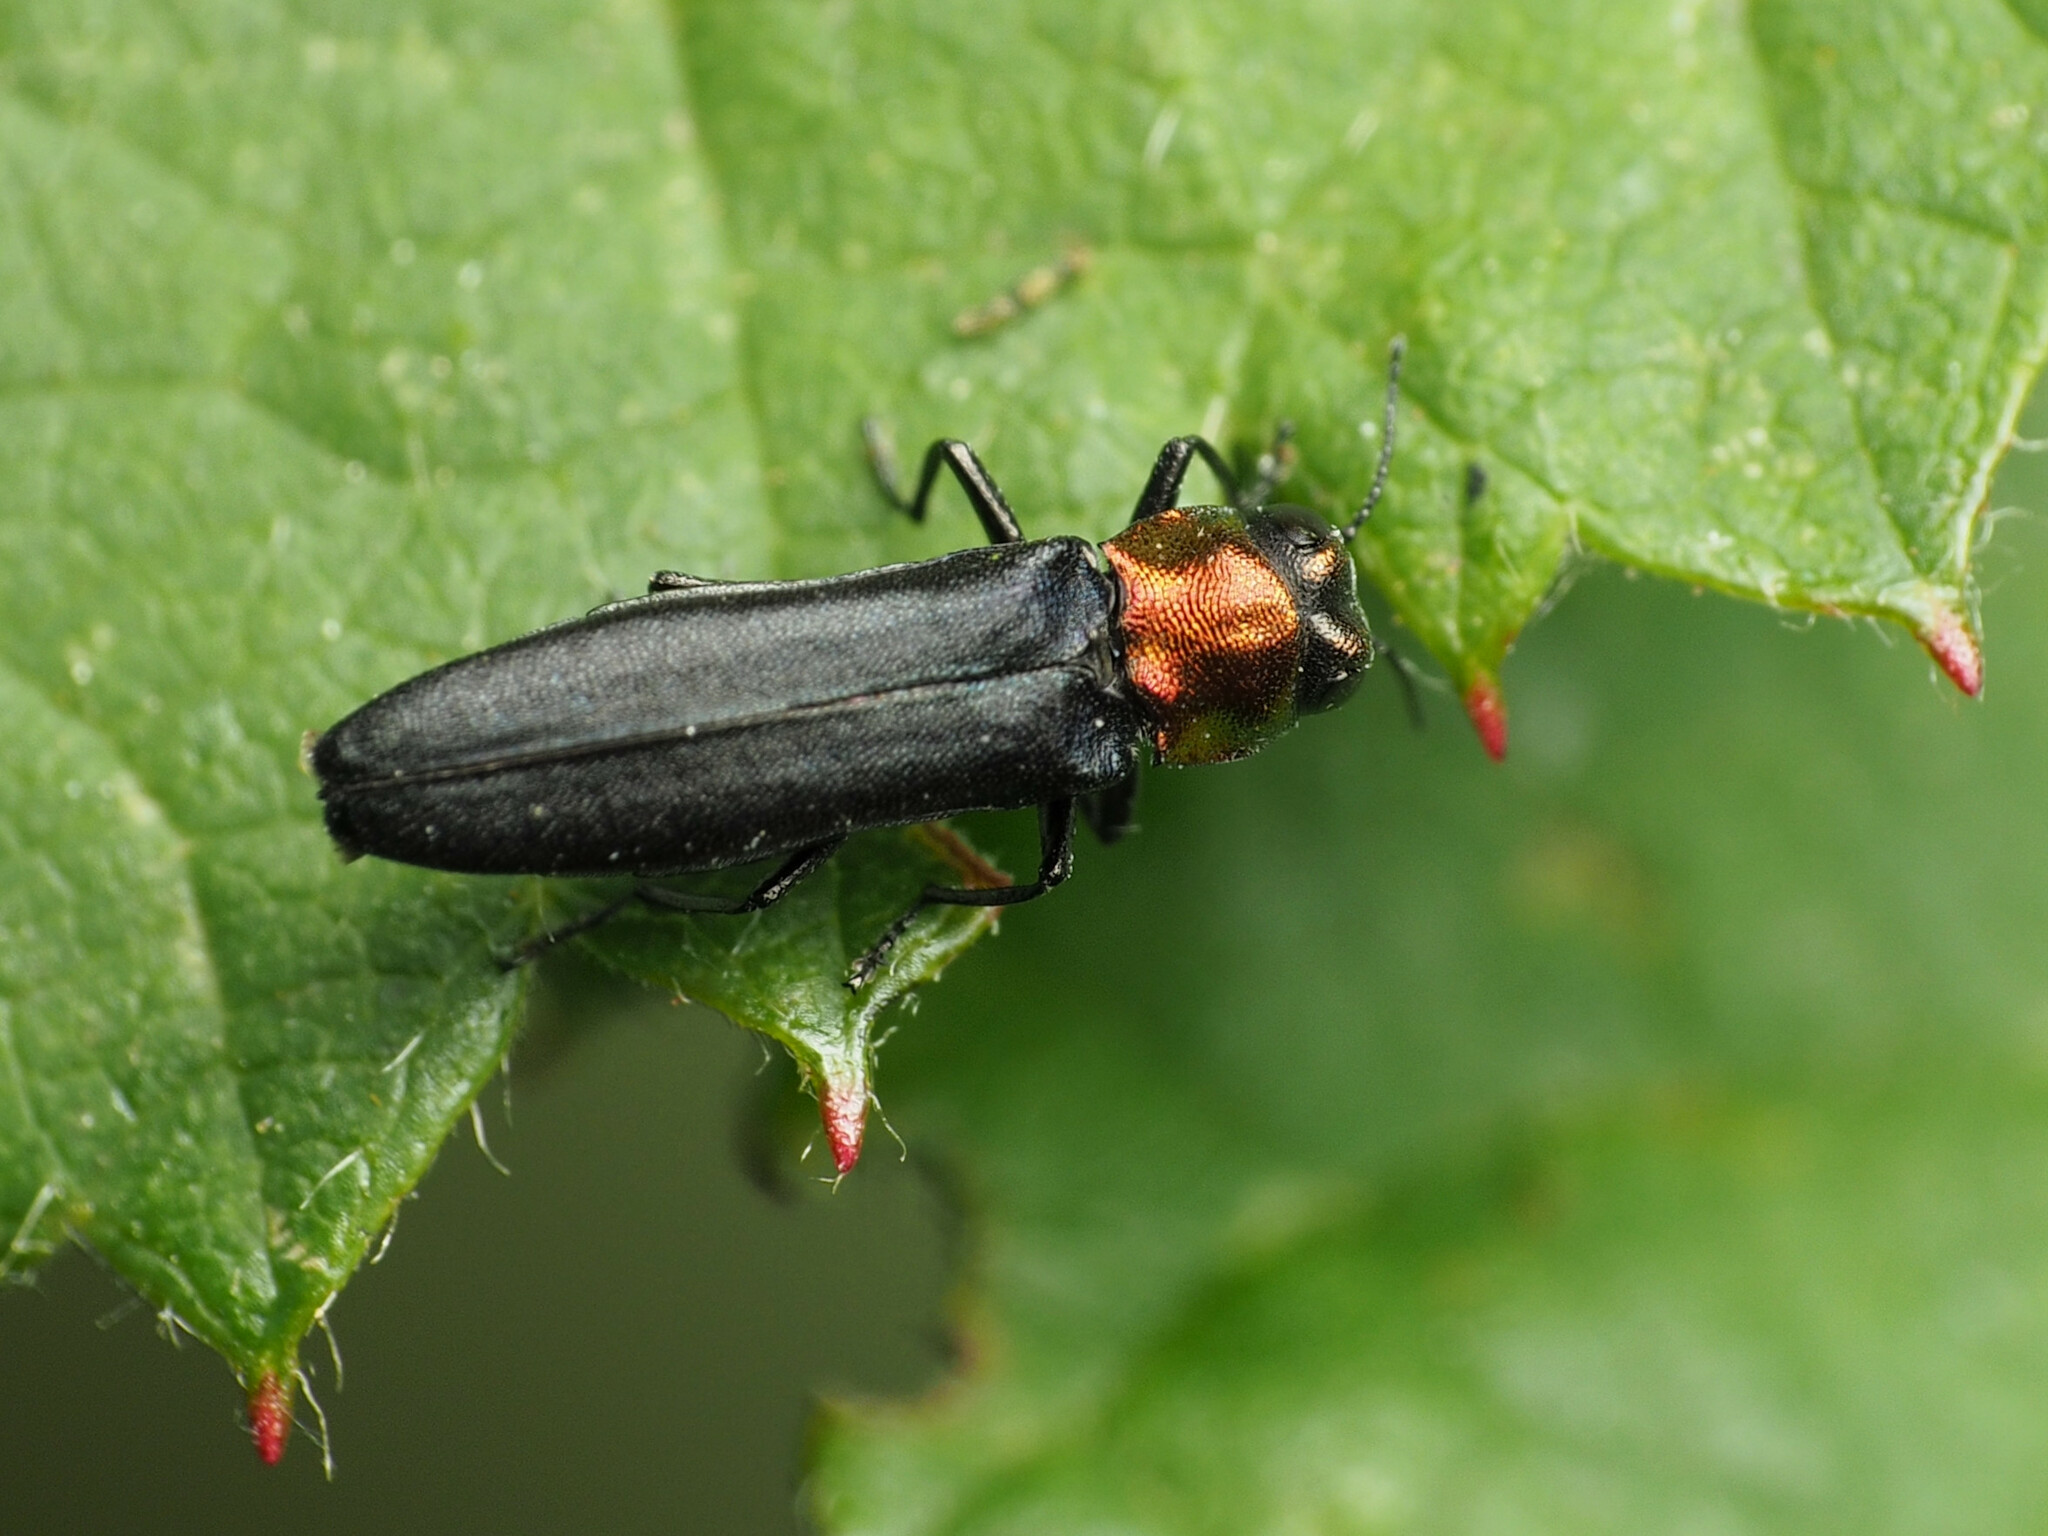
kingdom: Animalia
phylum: Arthropoda
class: Insecta
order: Coleoptera
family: Buprestidae
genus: Agrilus
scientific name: Agrilus ruficollis
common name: Red-necked cane borer beetle
